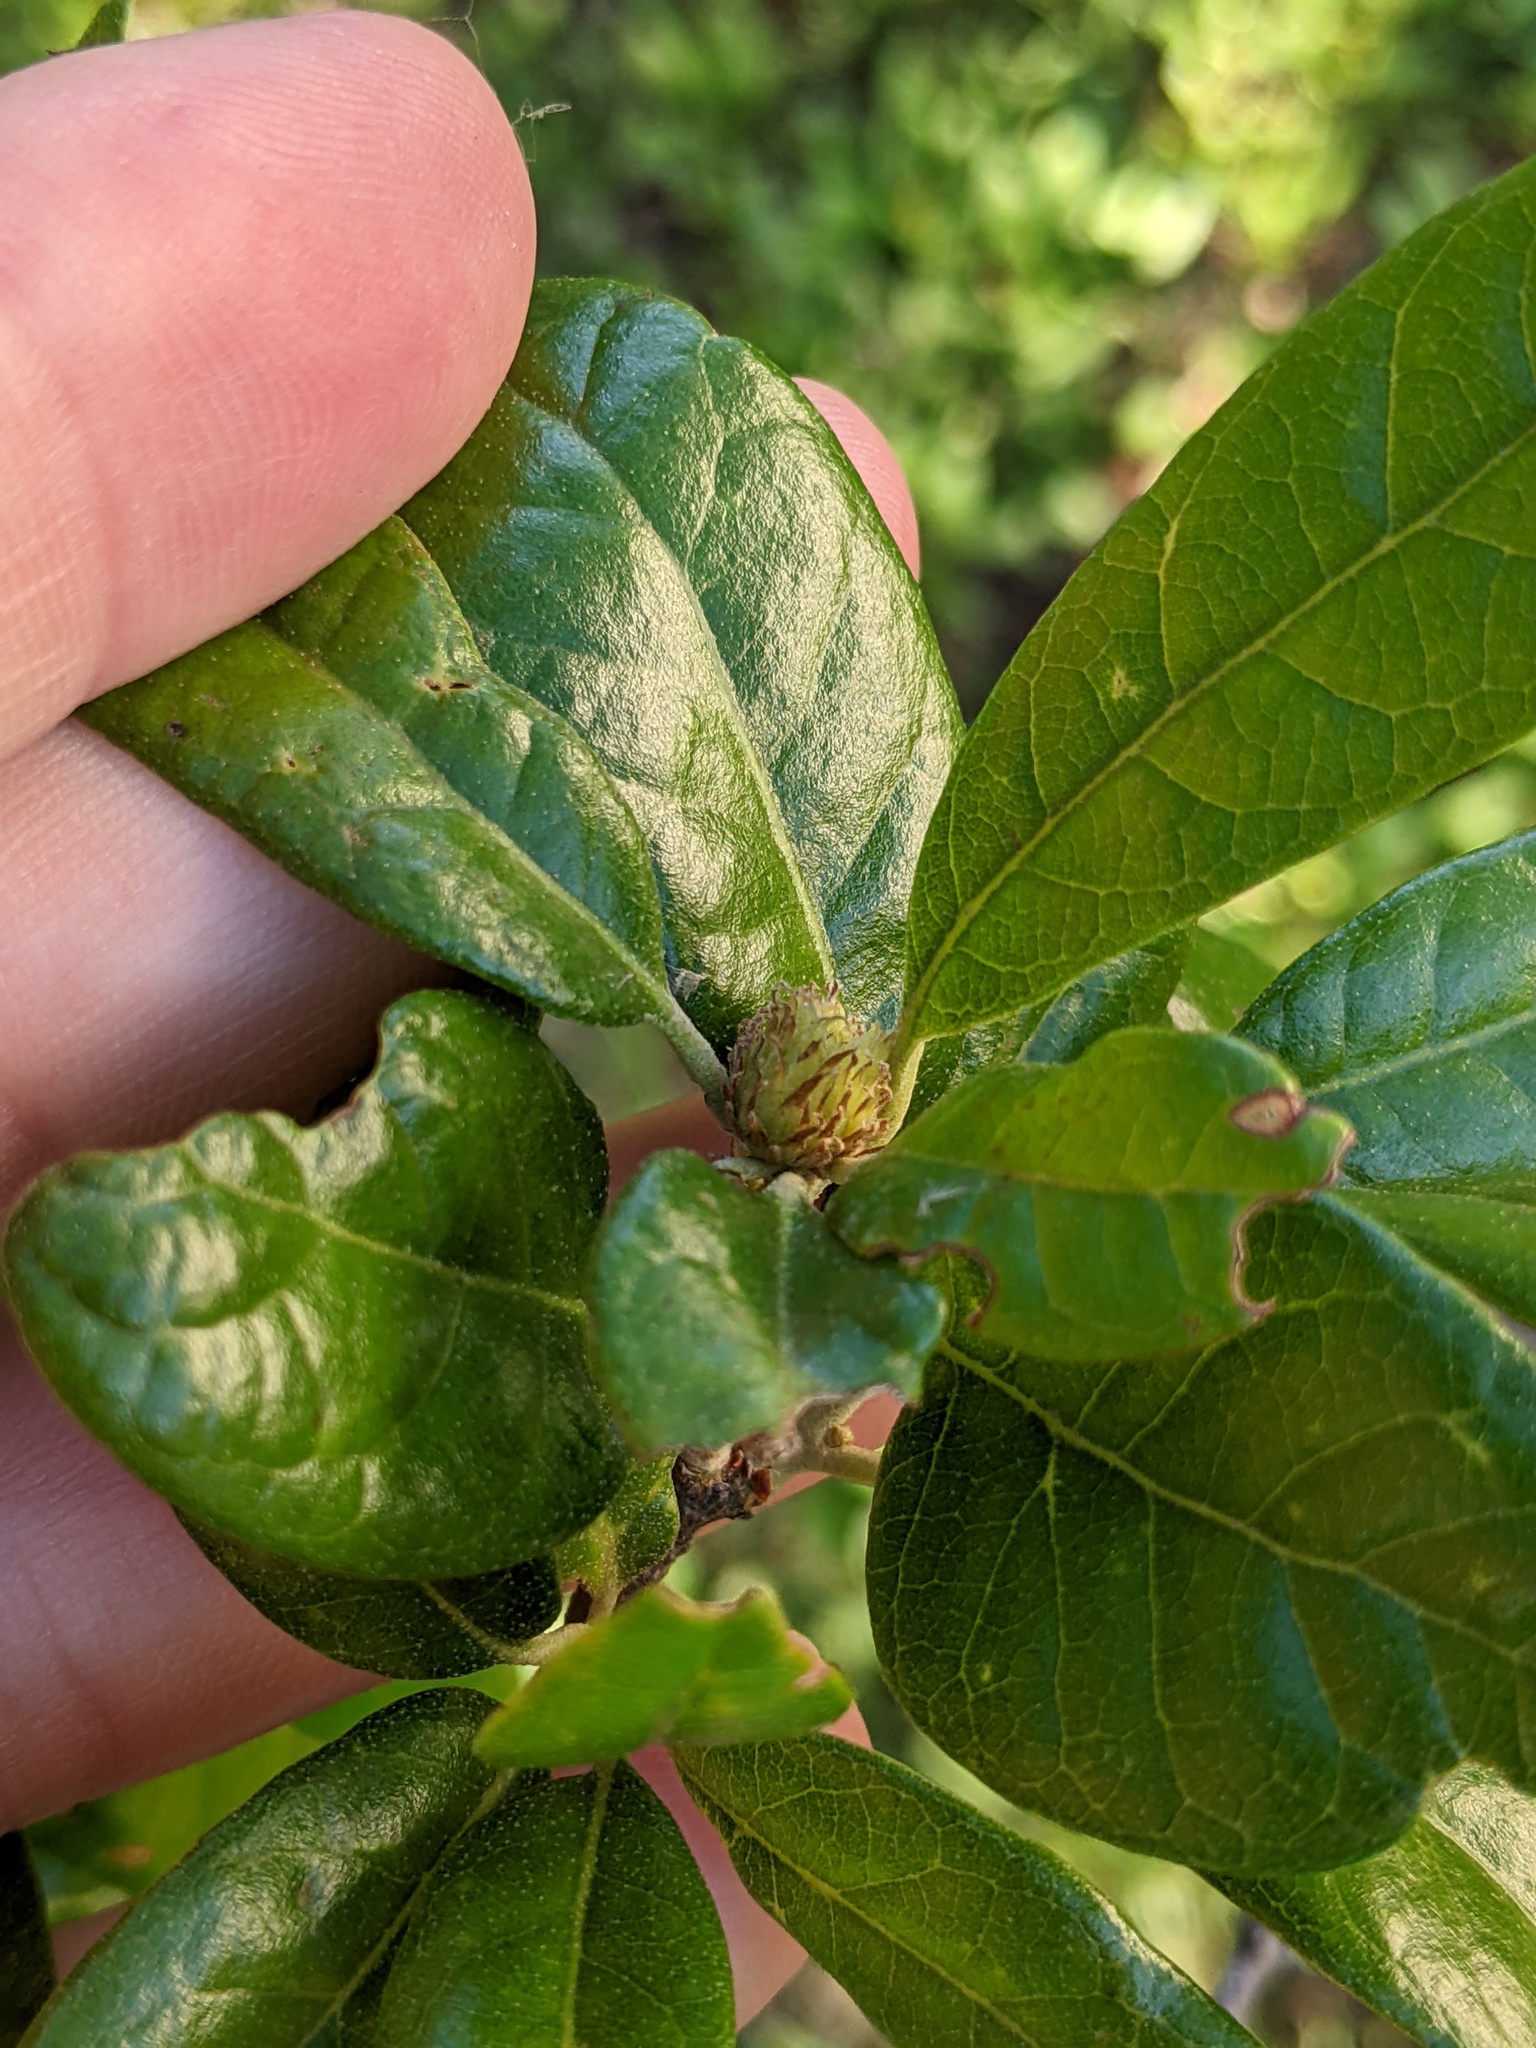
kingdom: Animalia
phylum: Arthropoda
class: Insecta
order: Hymenoptera
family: Cynipidae
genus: Andricus
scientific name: Andricus quercusfoliatus
